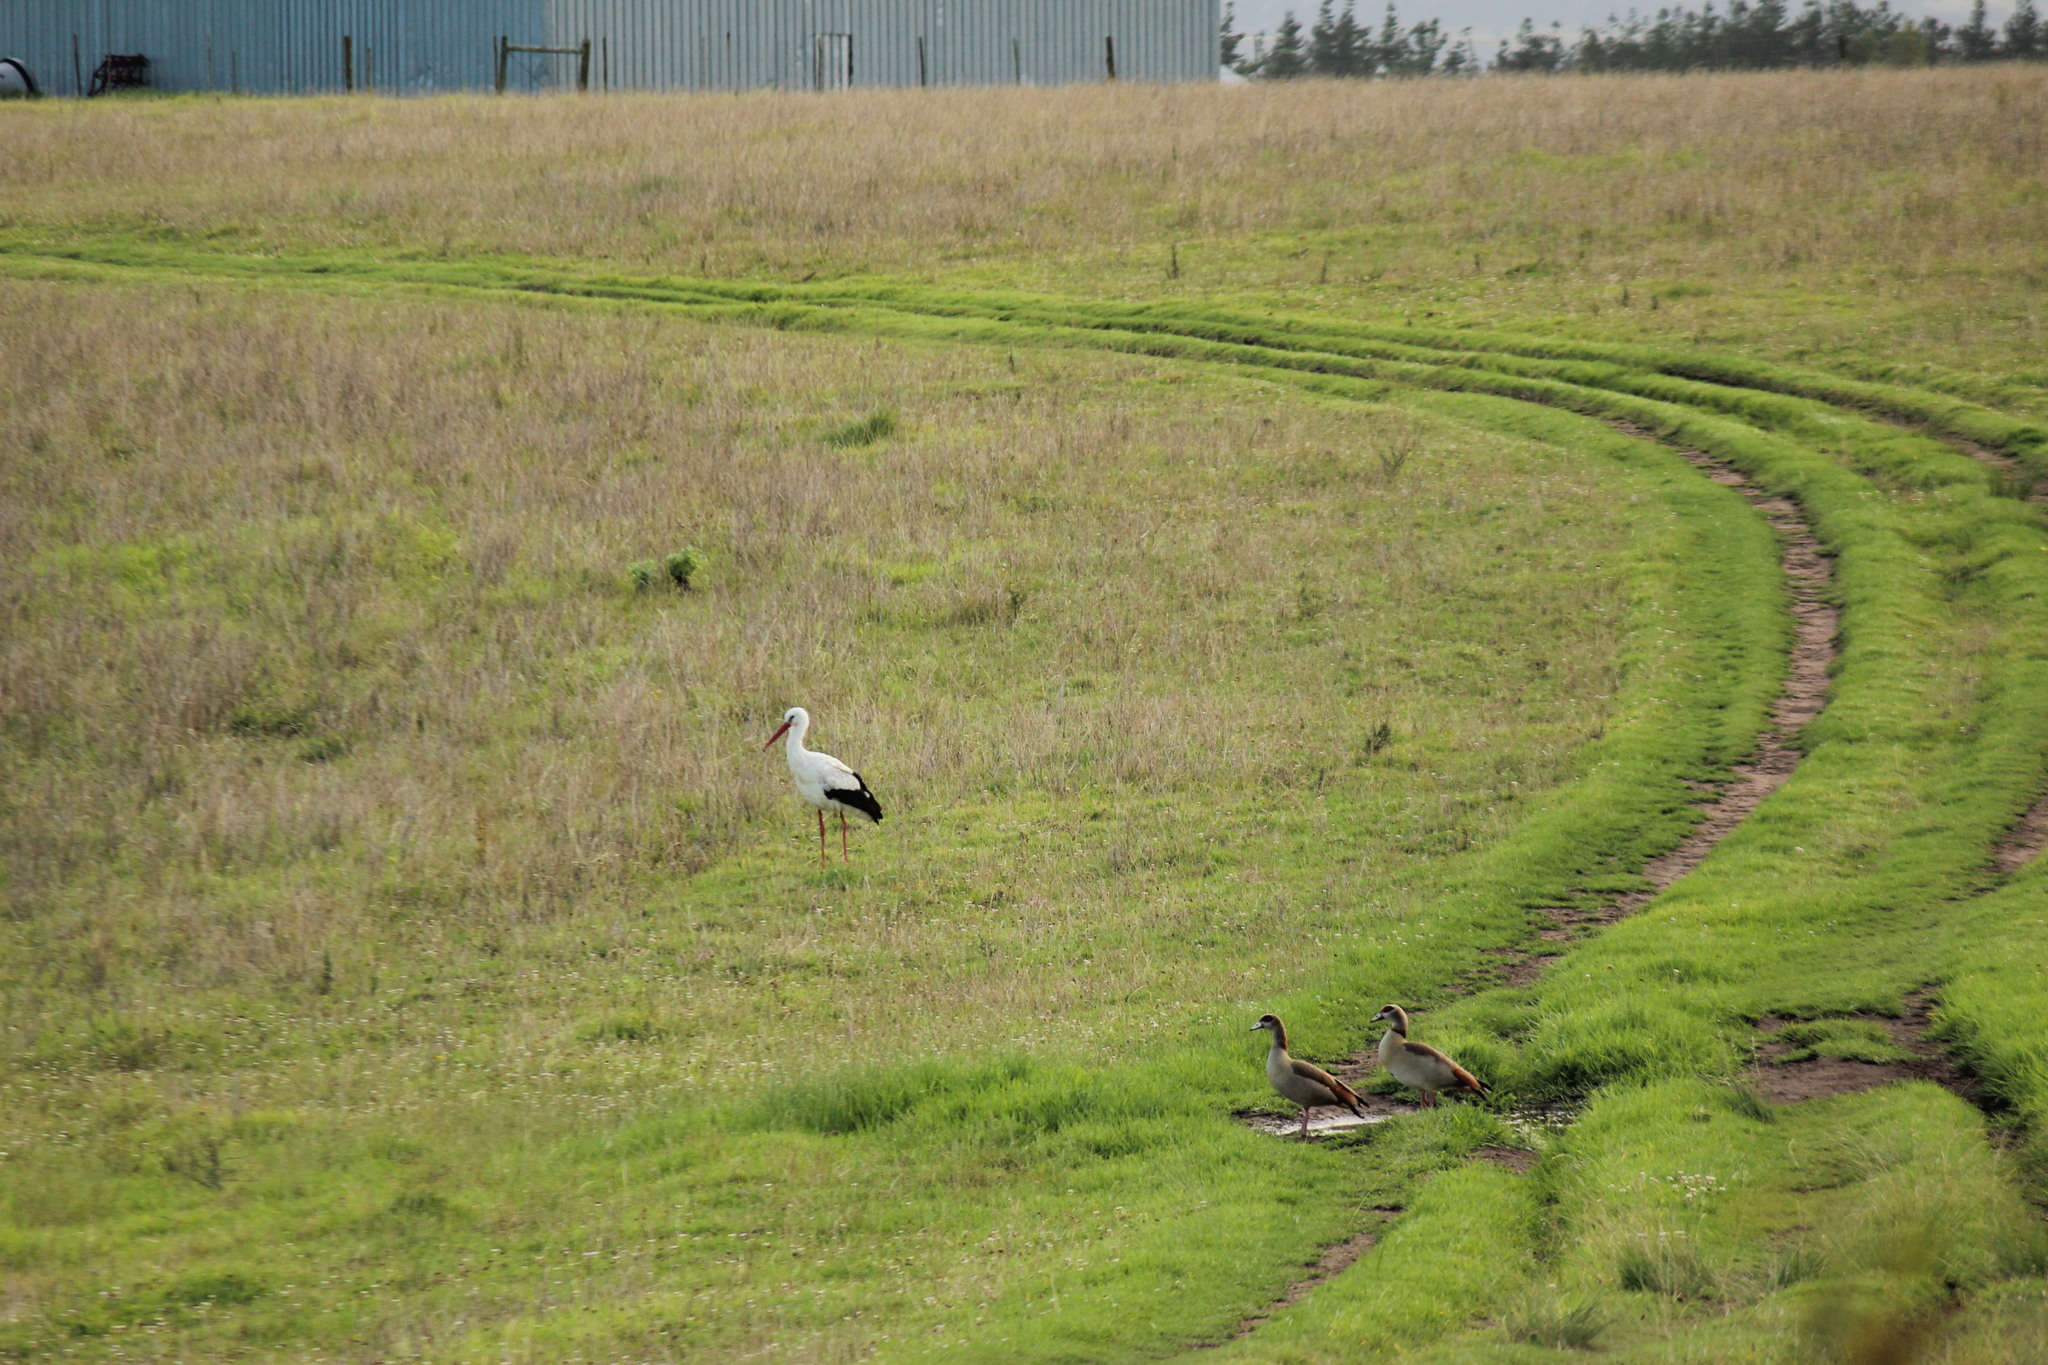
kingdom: Animalia
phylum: Chordata
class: Aves
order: Ciconiiformes
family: Ciconiidae
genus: Ciconia
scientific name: Ciconia ciconia
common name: White stork
